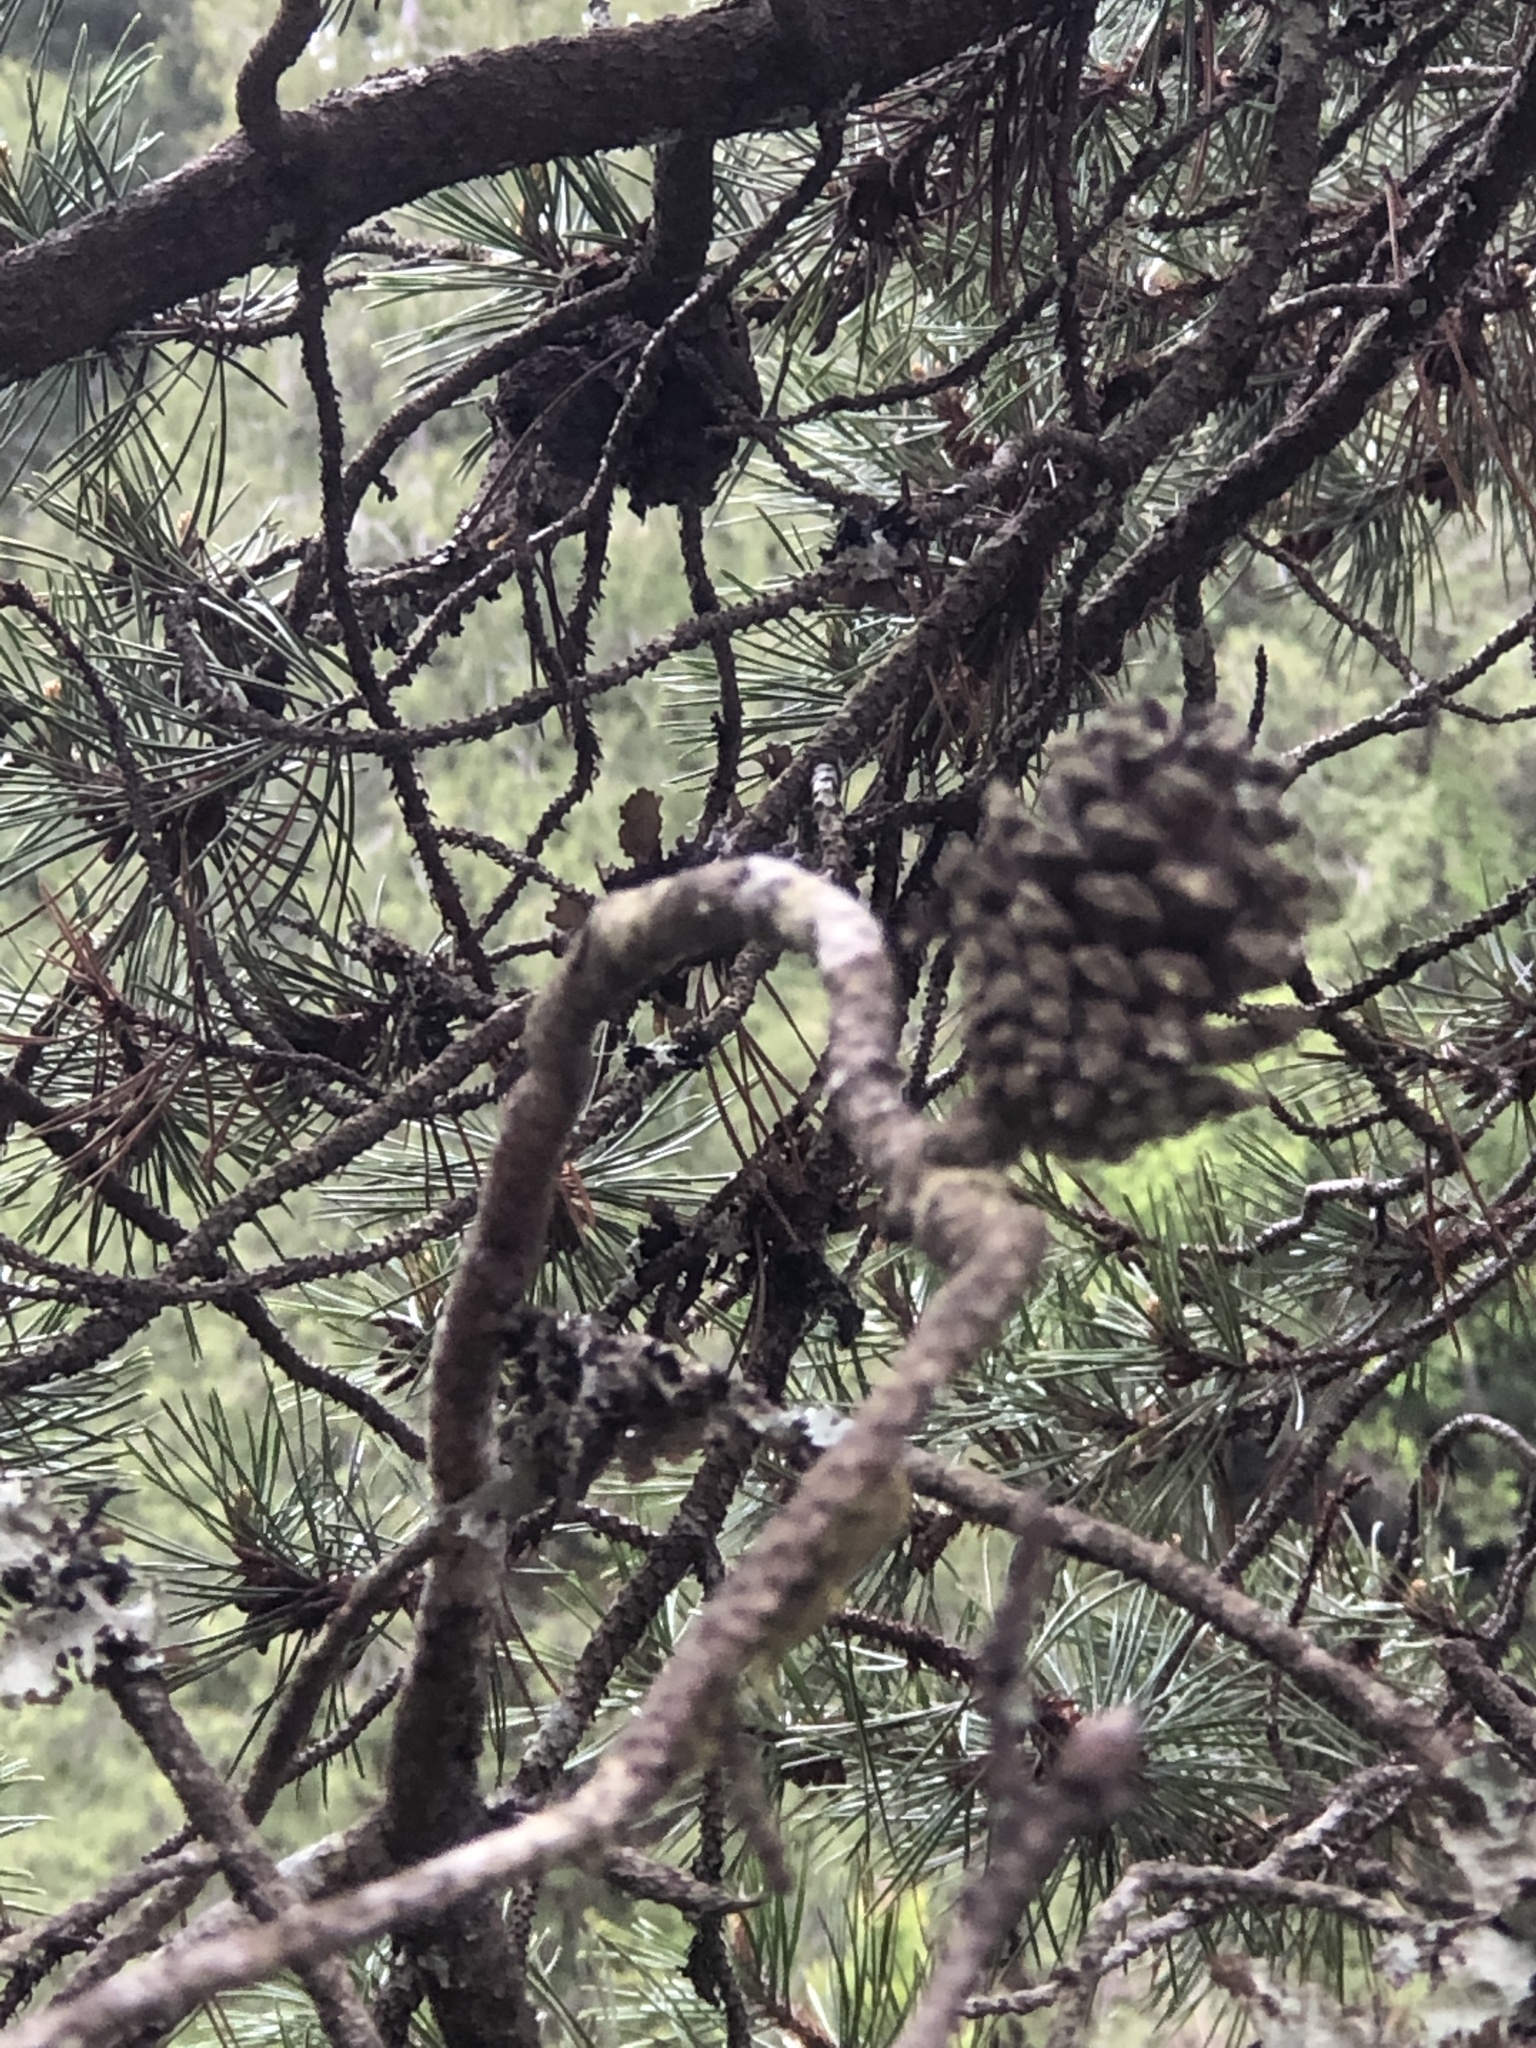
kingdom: Plantae
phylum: Tracheophyta
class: Pinopsida
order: Pinales
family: Pinaceae
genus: Pinus
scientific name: Pinus contorta
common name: Lodgepole pine
